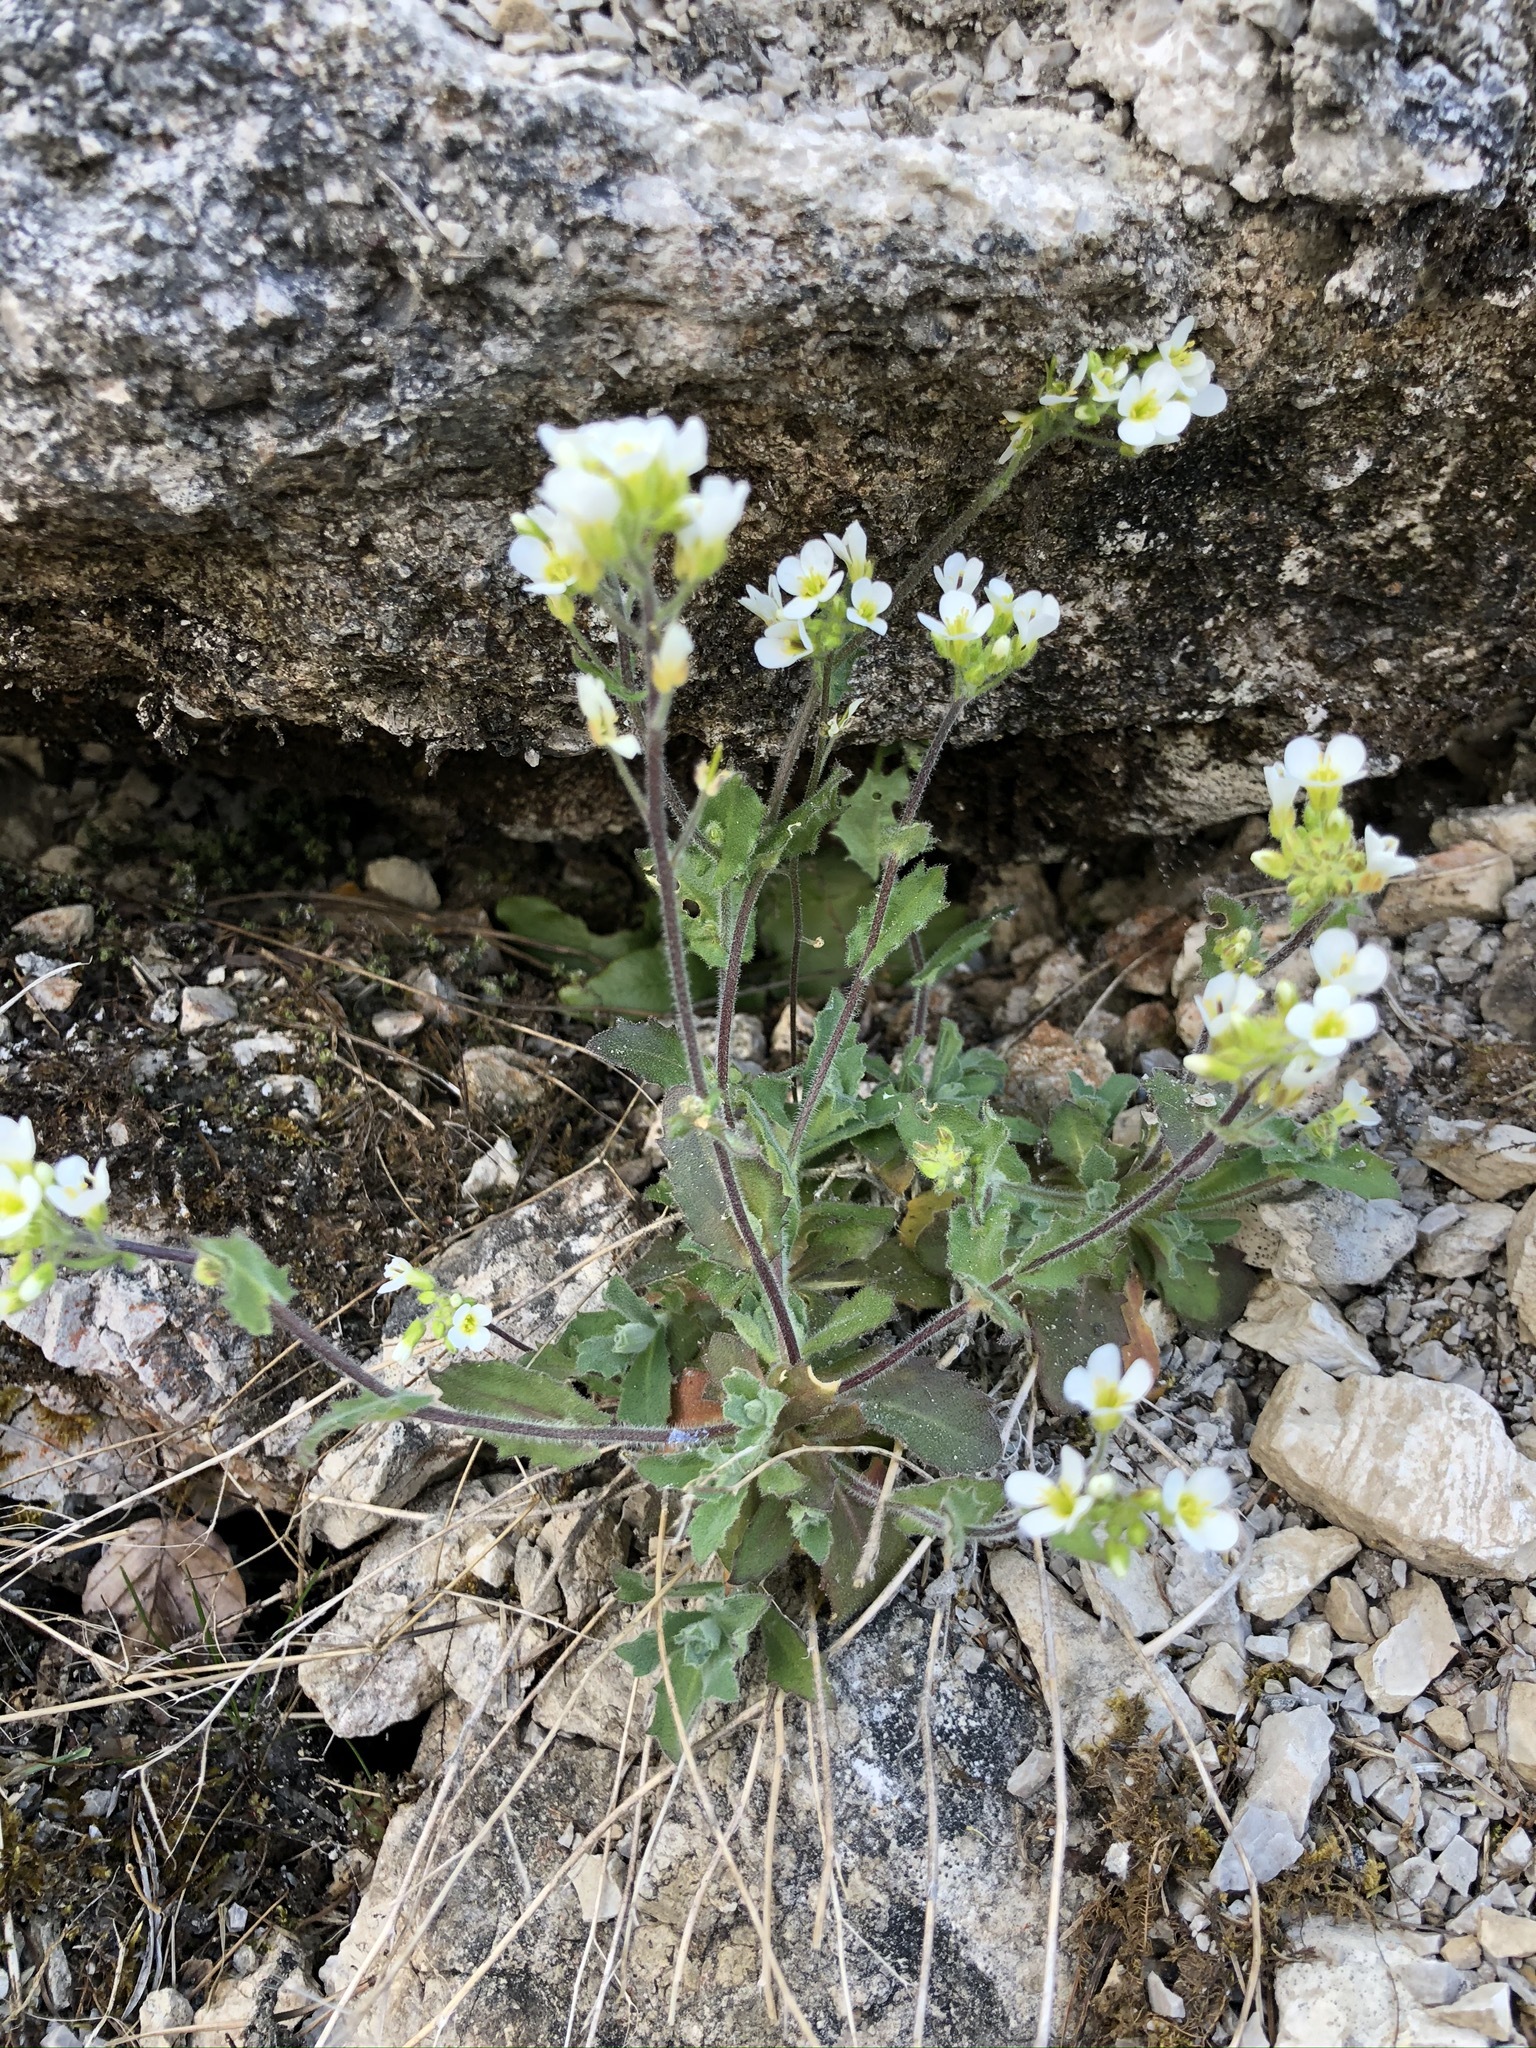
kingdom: Plantae
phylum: Tracheophyta
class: Magnoliopsida
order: Brassicales
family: Brassicaceae
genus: Arabis
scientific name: Arabis alpina
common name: Alpine rock-cress
